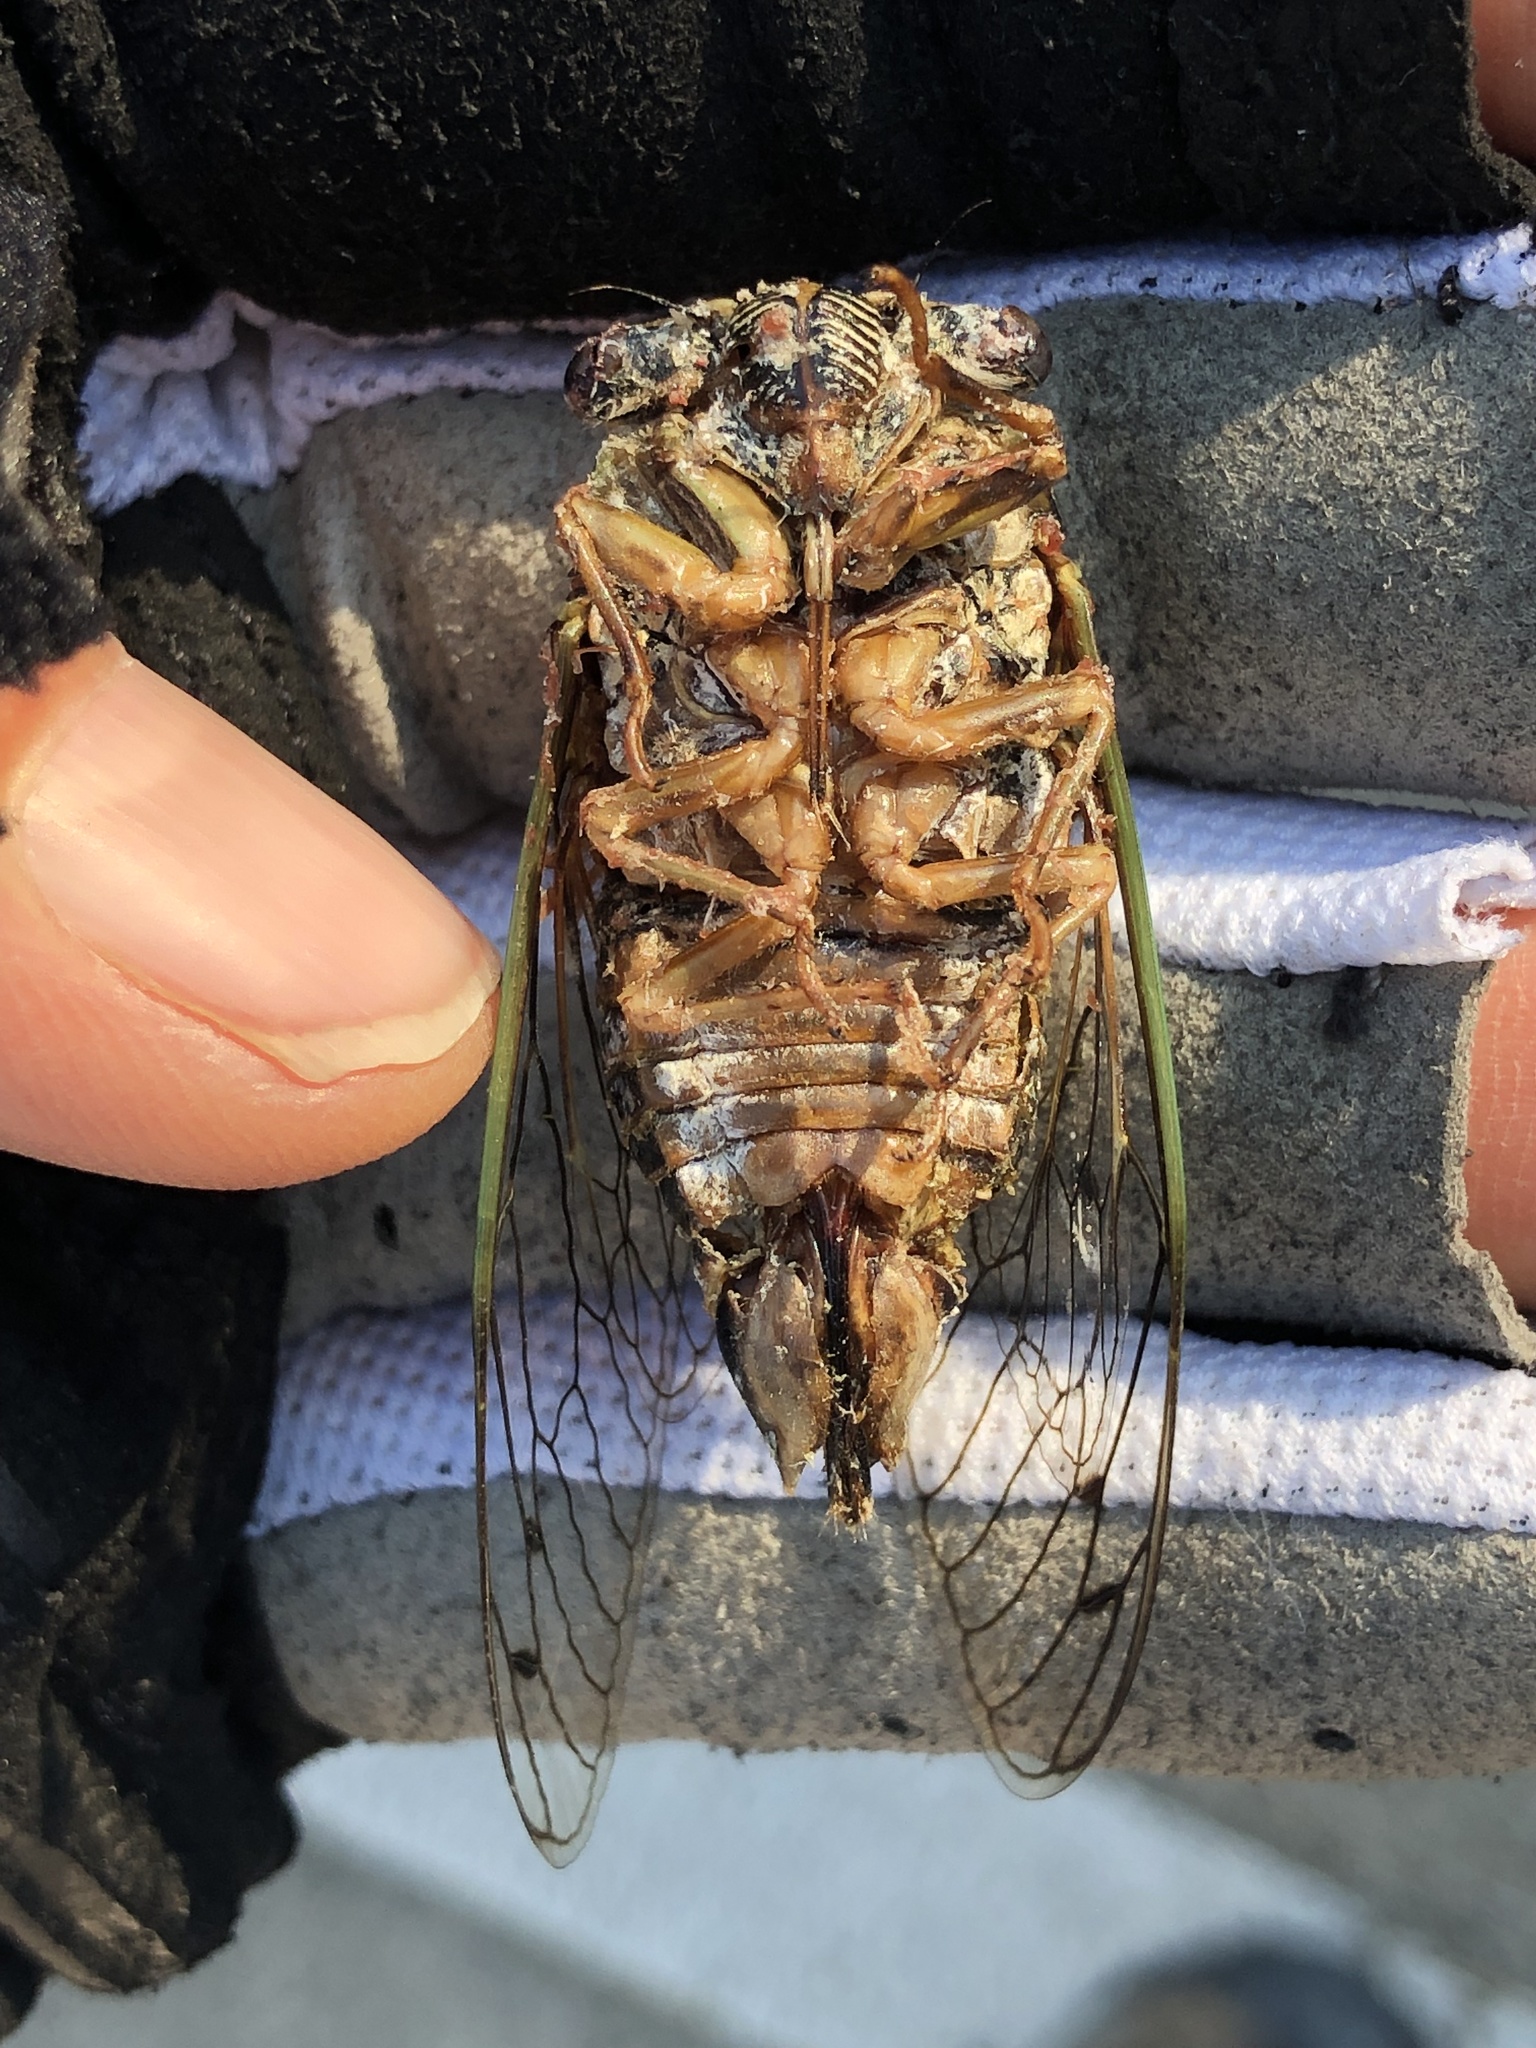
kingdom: Animalia
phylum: Arthropoda
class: Insecta
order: Hemiptera
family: Cicadidae
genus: Megatibicen
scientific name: Megatibicen resh
